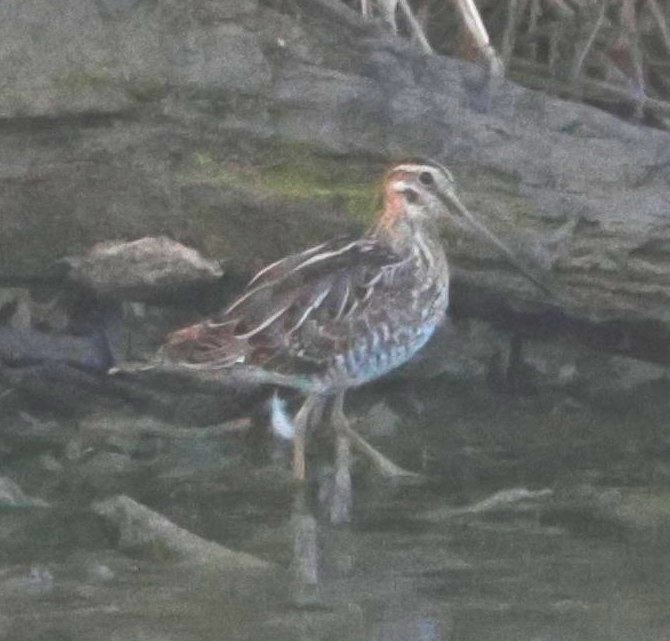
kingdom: Animalia
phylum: Chordata
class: Aves
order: Charadriiformes
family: Scolopacidae
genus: Gallinago
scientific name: Gallinago gallinago
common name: Common snipe
